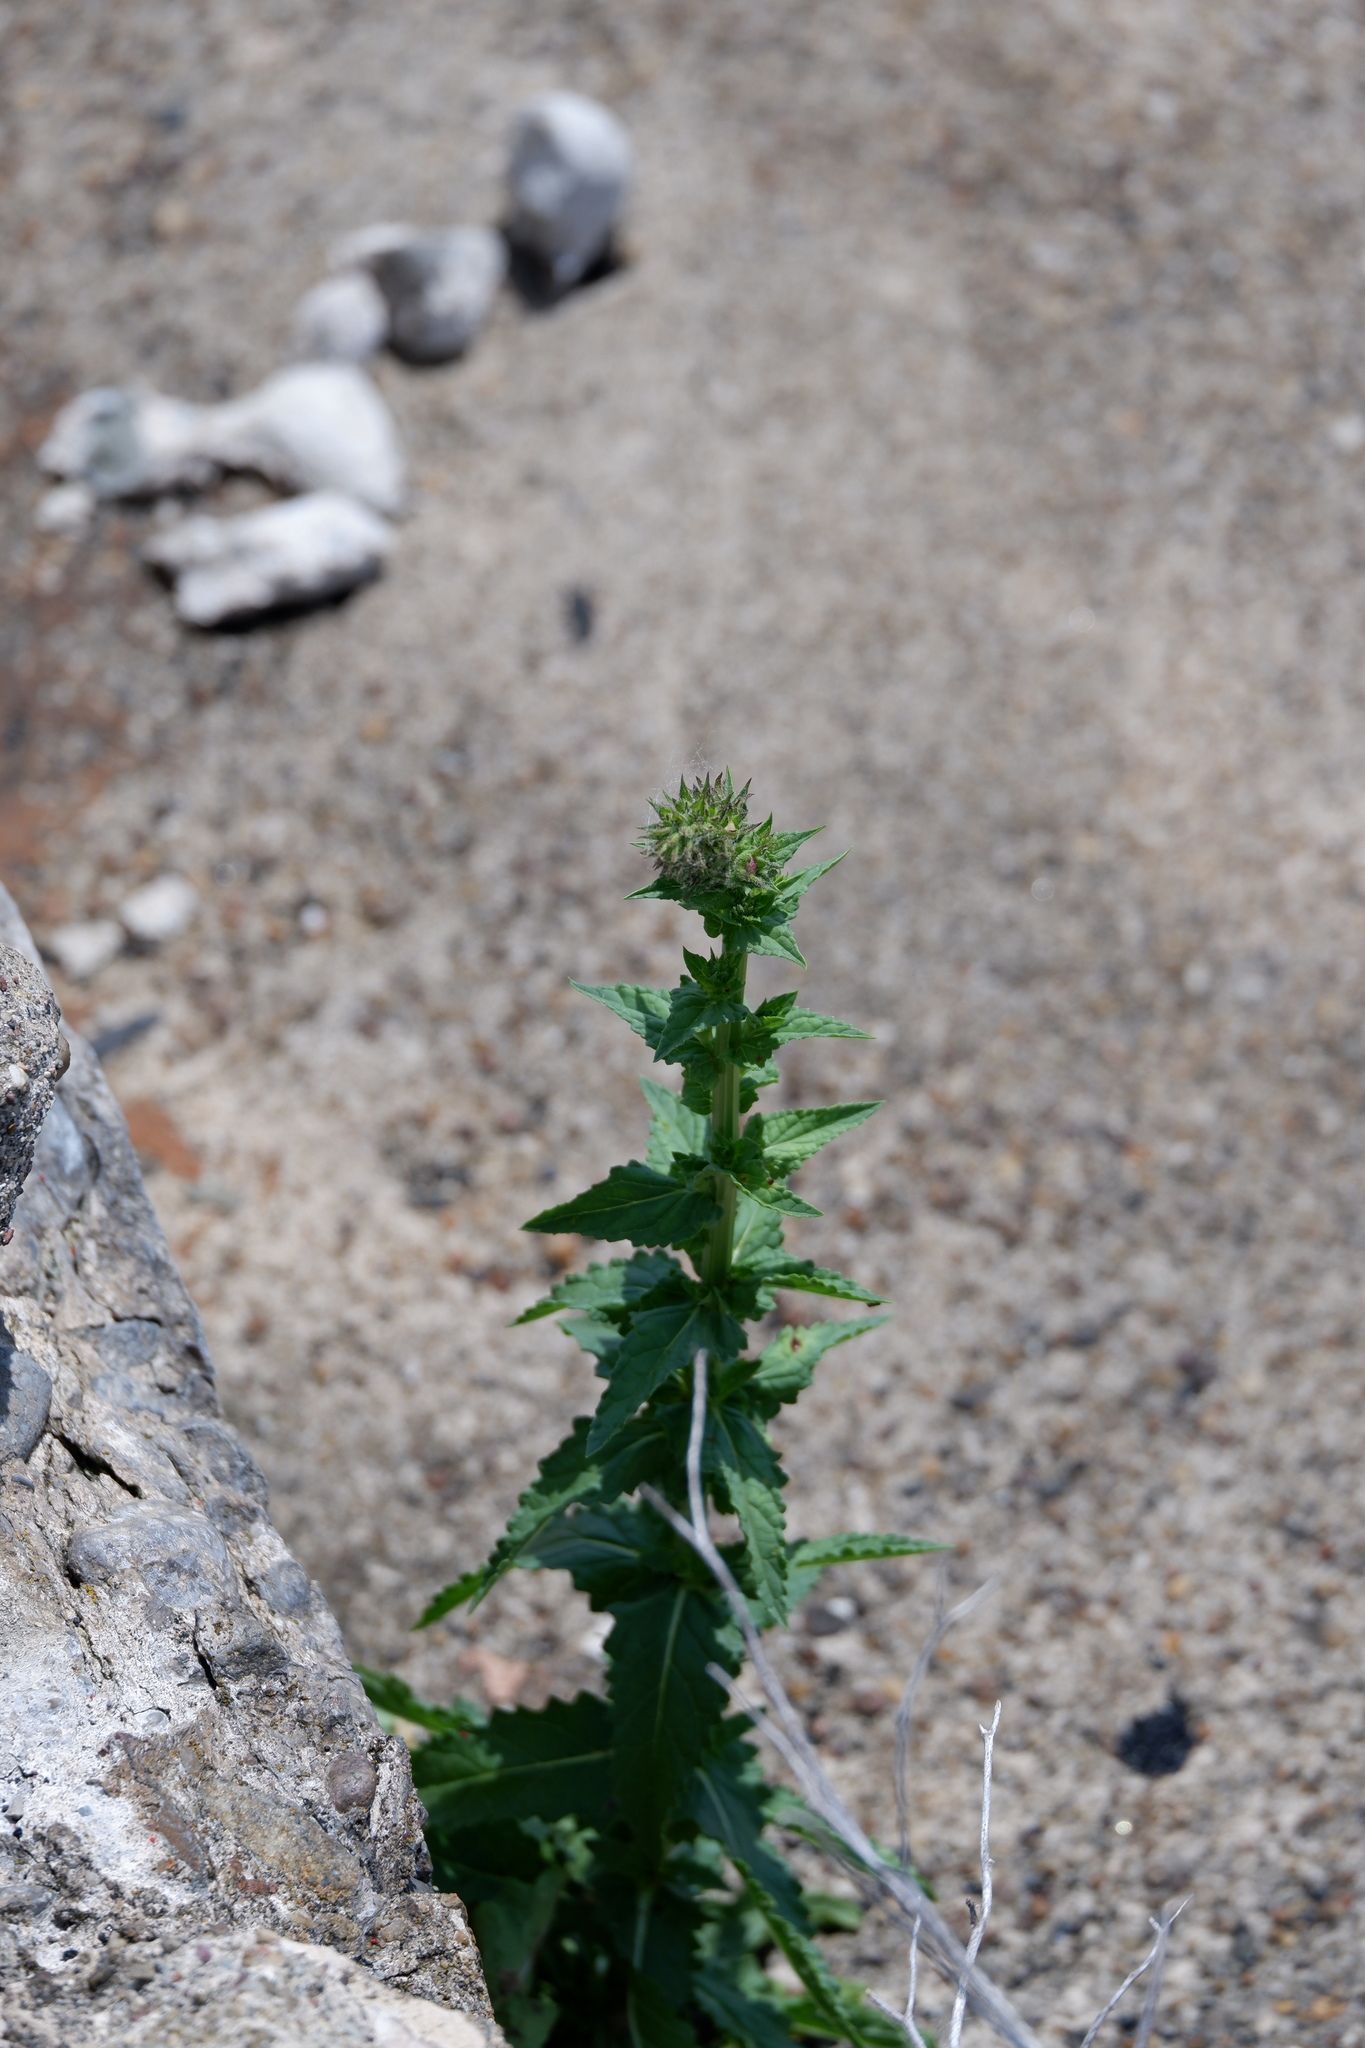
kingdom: Plantae
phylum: Tracheophyta
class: Magnoliopsida
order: Lamiales
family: Scrophulariaceae
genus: Verbascum
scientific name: Verbascum blattaria
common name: Moth mullein
